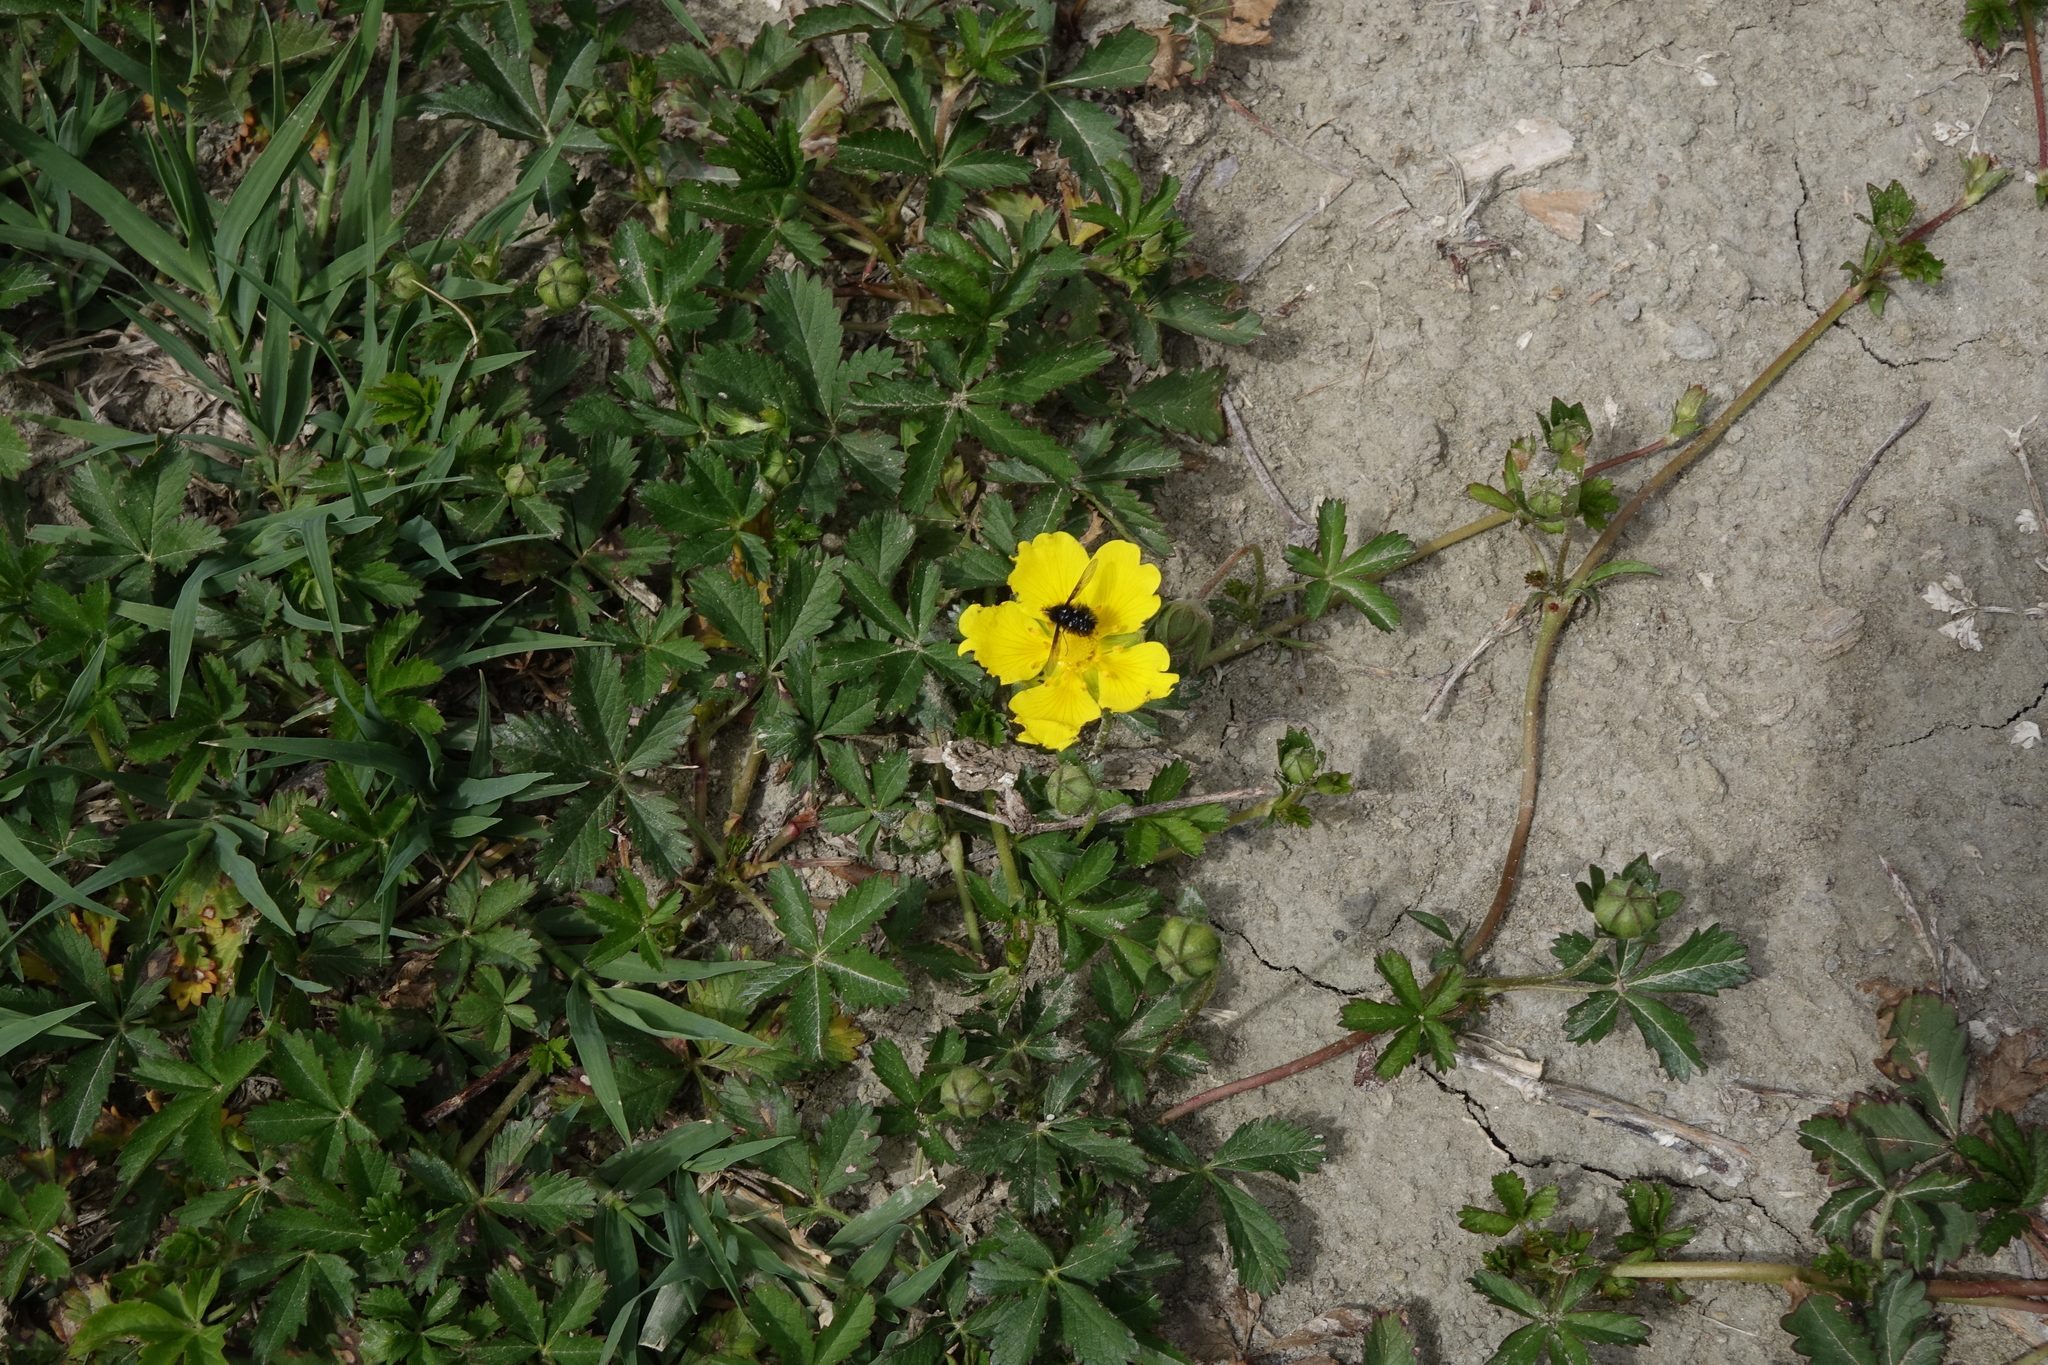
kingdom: Plantae
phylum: Tracheophyta
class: Magnoliopsida
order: Rosales
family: Rosaceae
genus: Potentilla
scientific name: Potentilla reptans
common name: Creeping cinquefoil
